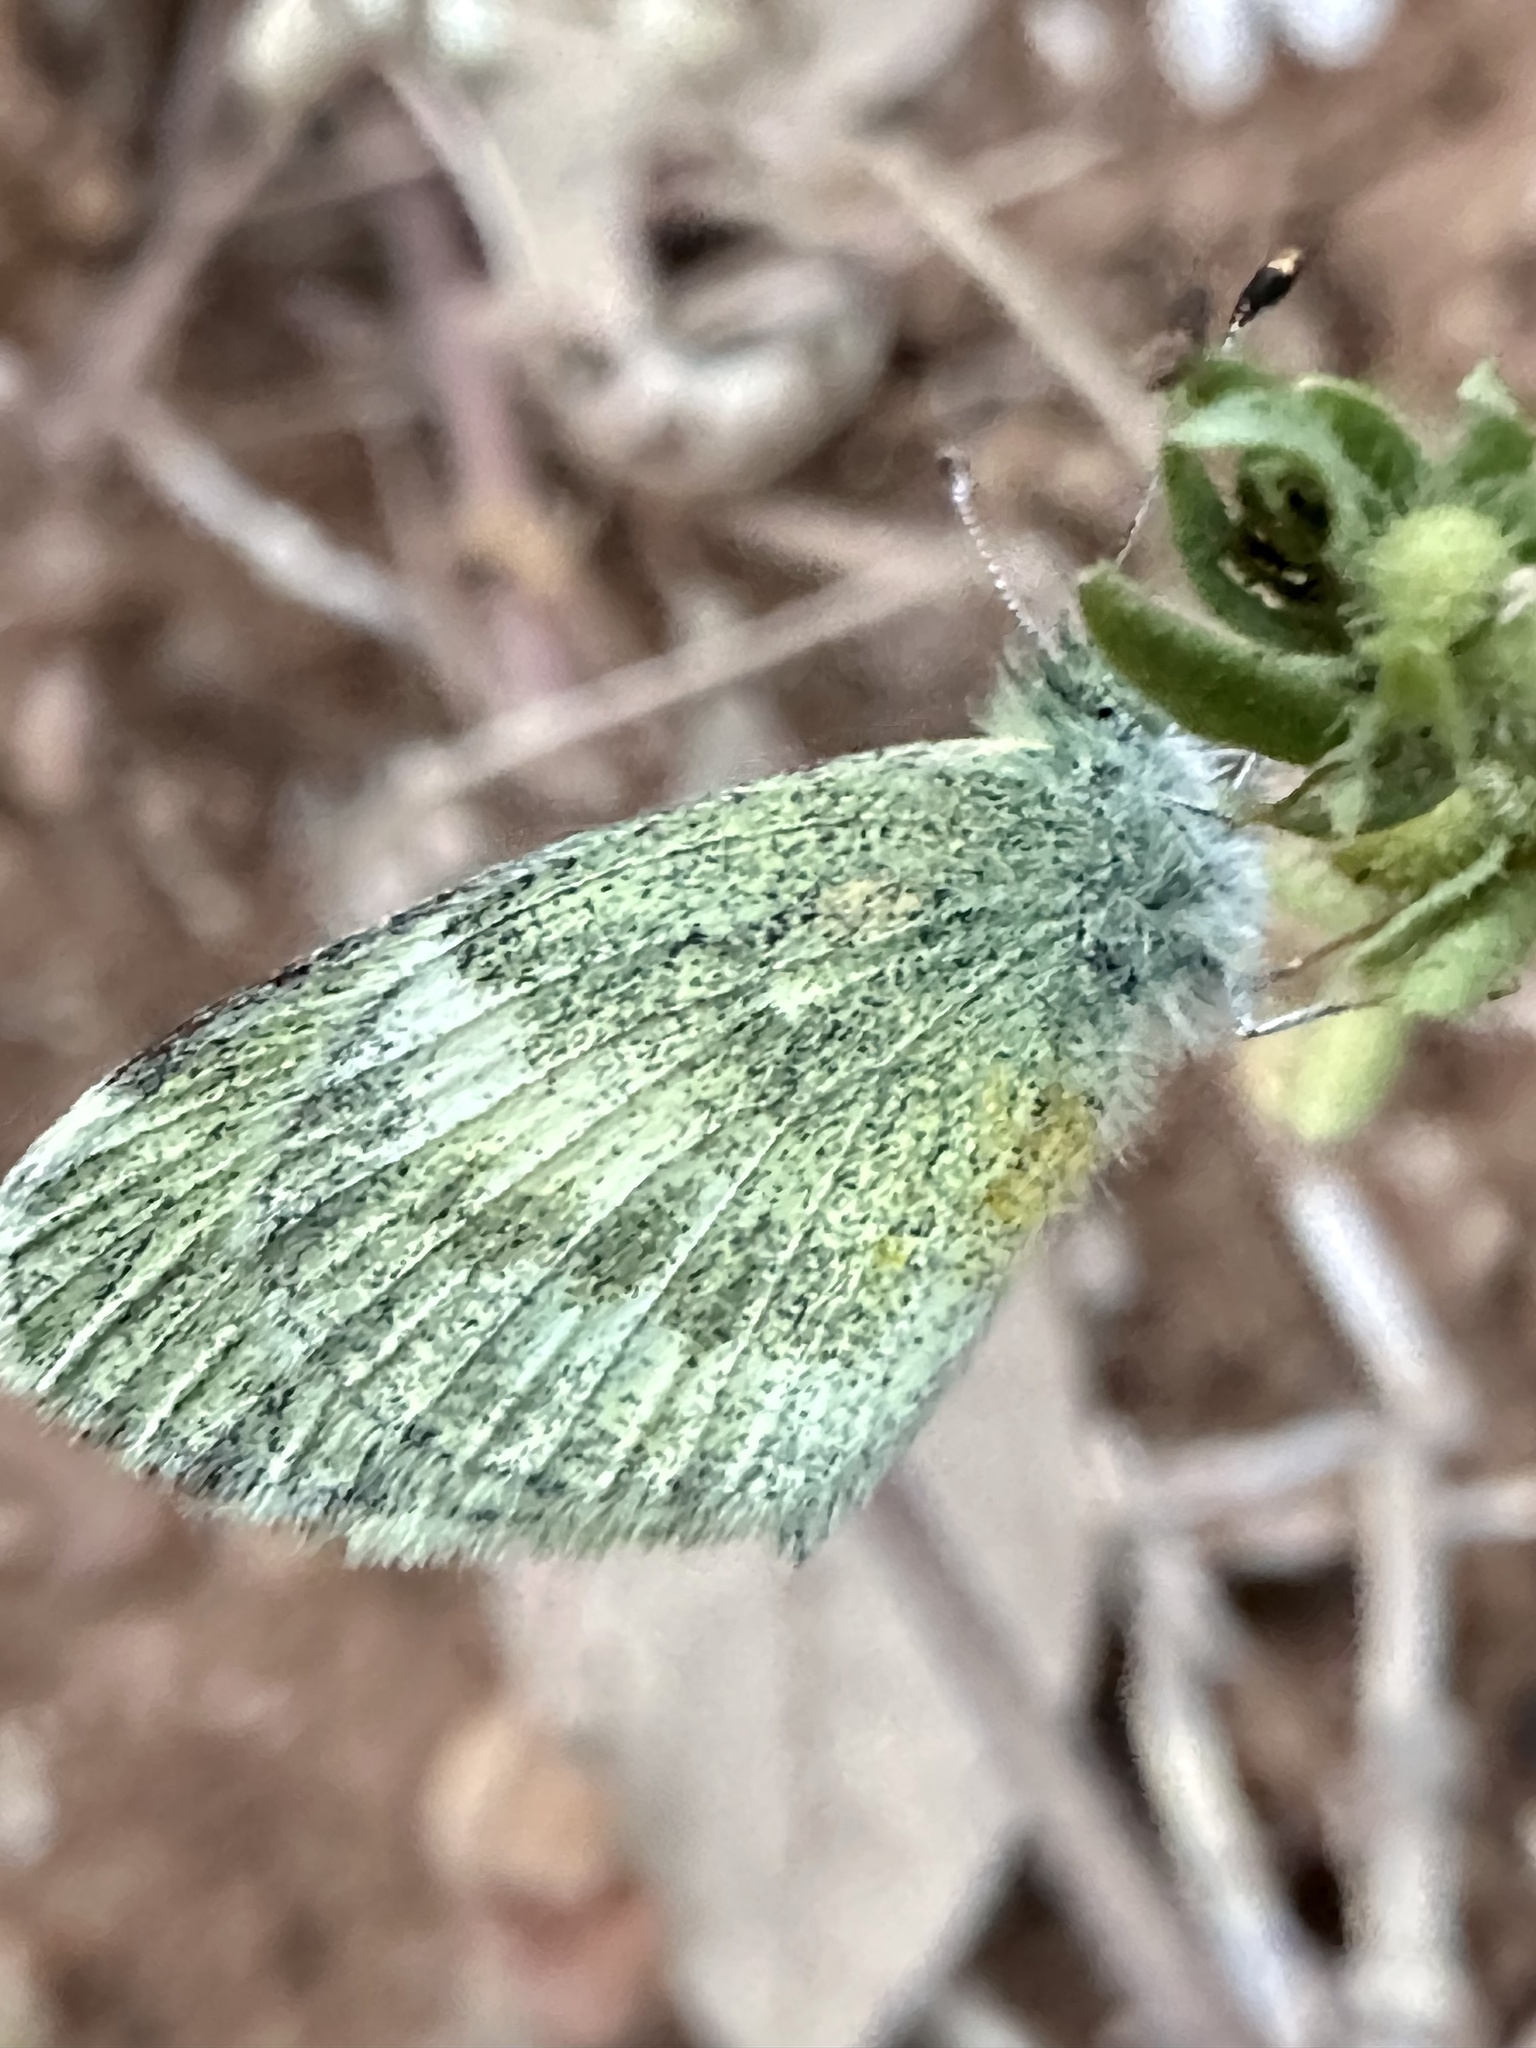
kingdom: Animalia
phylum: Arthropoda
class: Insecta
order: Lepidoptera
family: Pieridae
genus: Nathalis
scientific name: Nathalis iole
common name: Dainty sulphur
